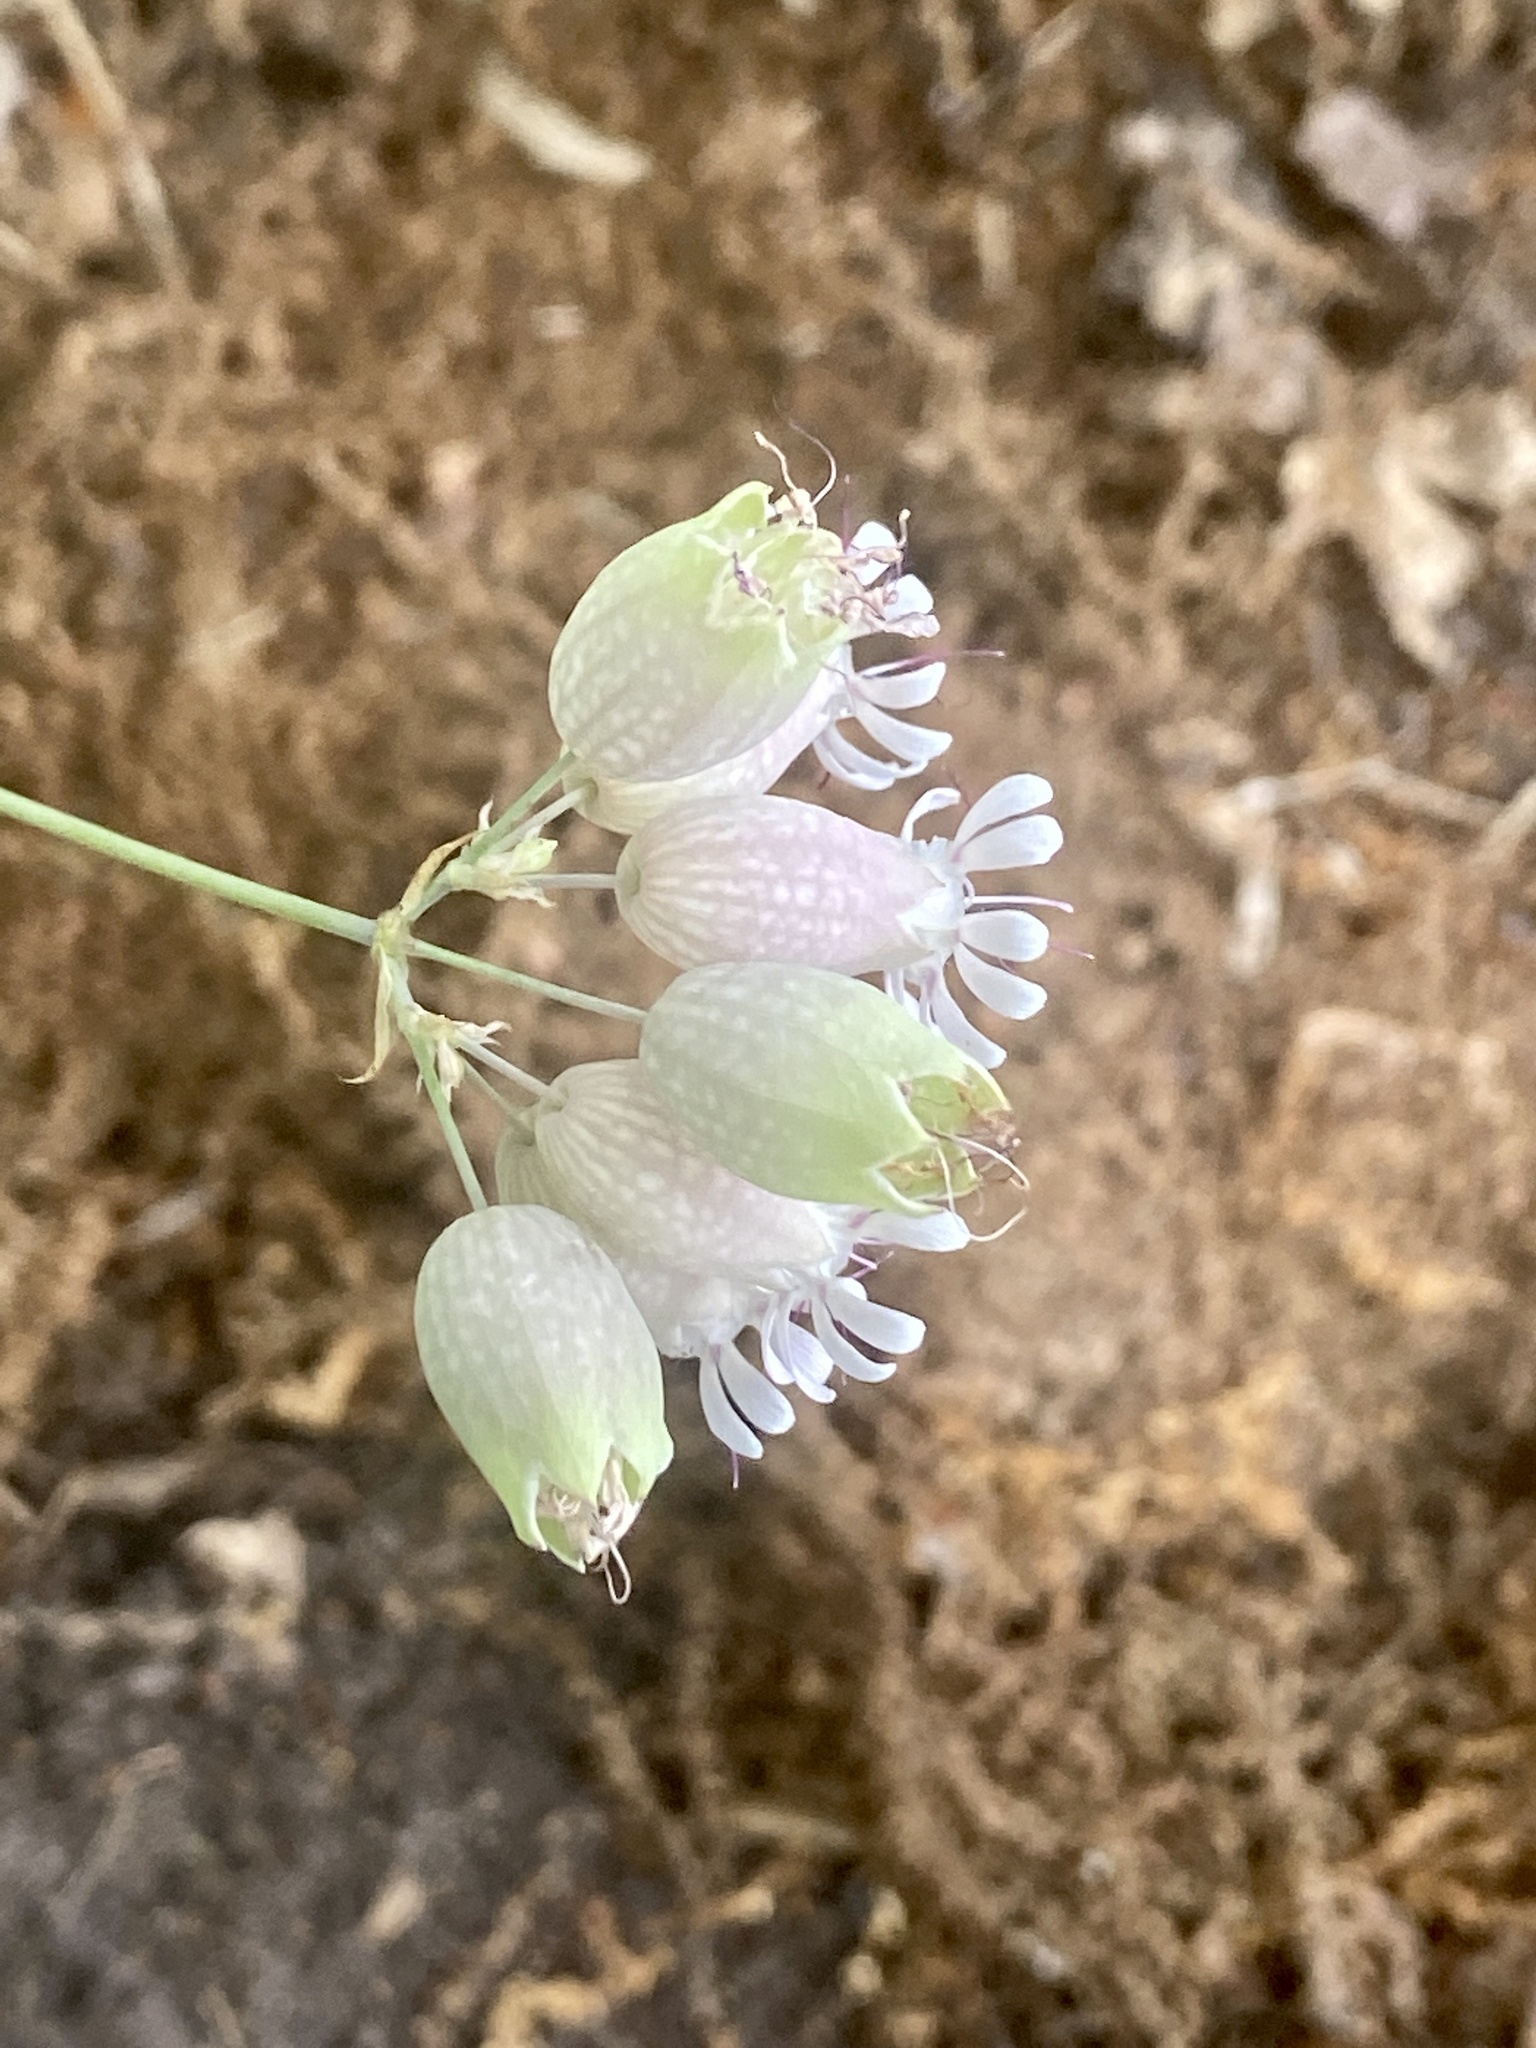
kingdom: Plantae
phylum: Tracheophyta
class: Magnoliopsida
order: Caryophyllales
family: Caryophyllaceae
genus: Silene
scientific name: Silene vulgaris
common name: Bladder campion
